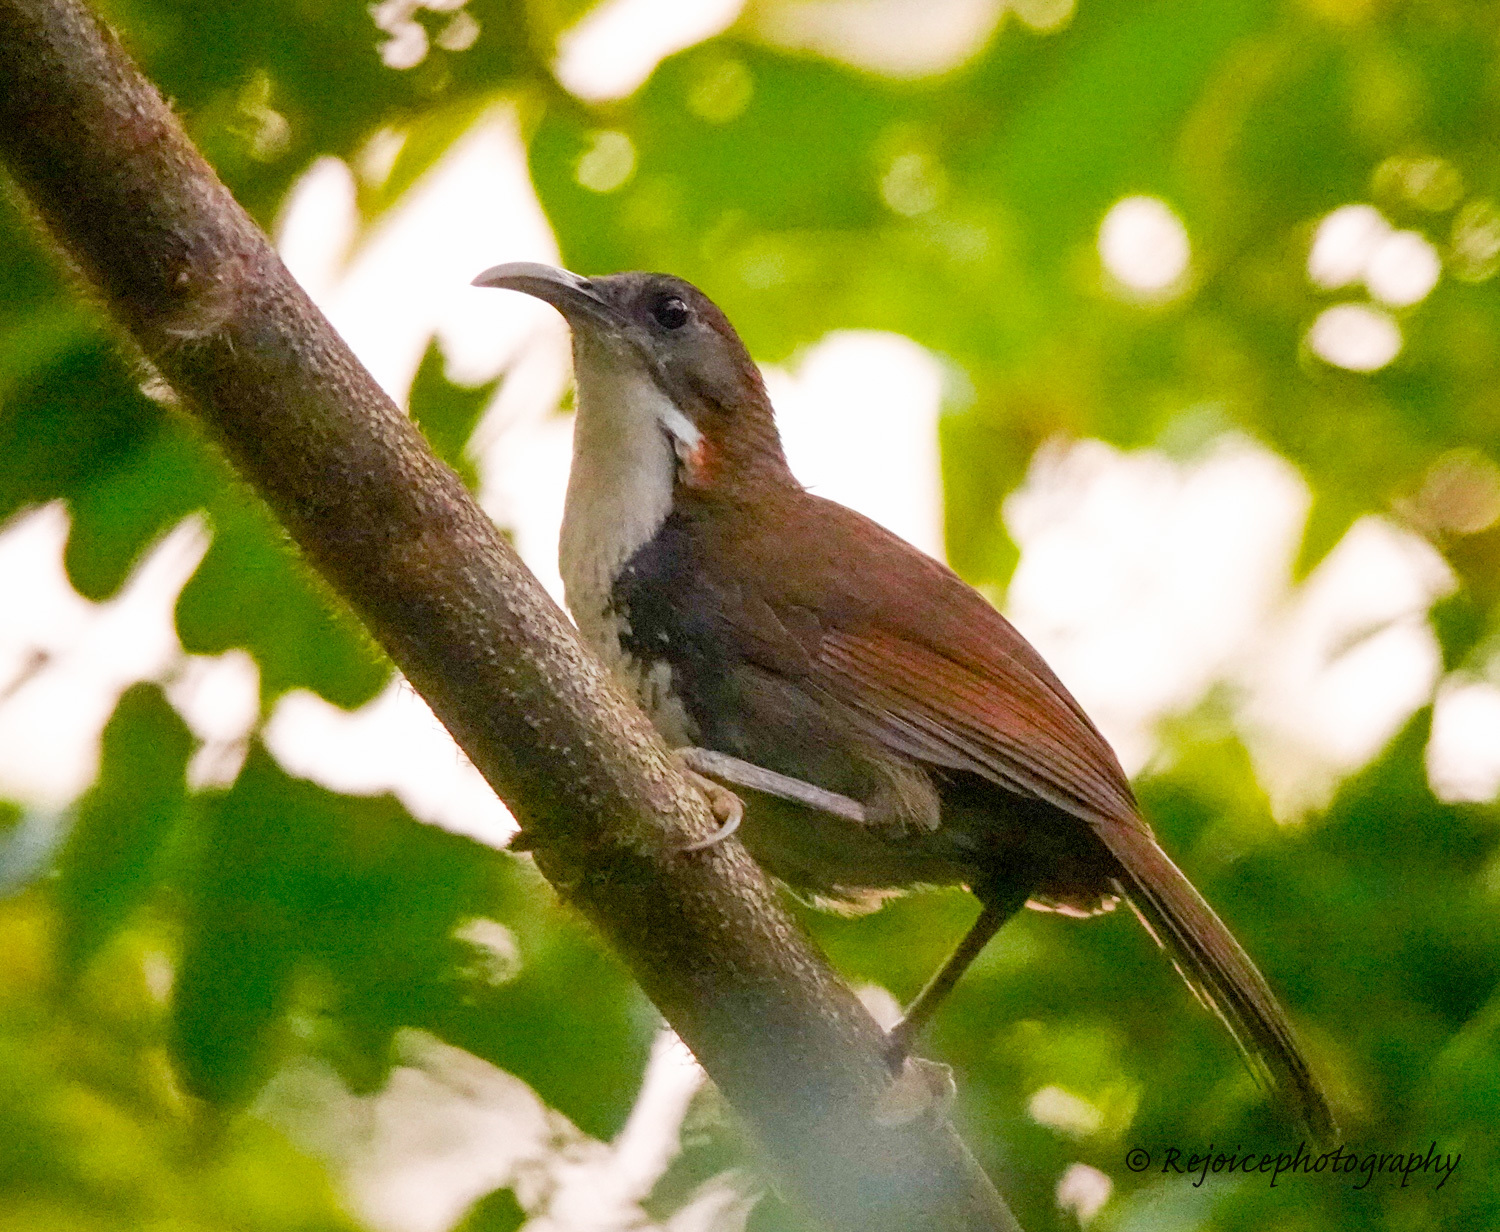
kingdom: Animalia
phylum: Chordata
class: Aves
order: Passeriformes
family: Timaliidae
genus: Pomatorhinus
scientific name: Pomatorhinus hypoleucos
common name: Large scimitar babbler
